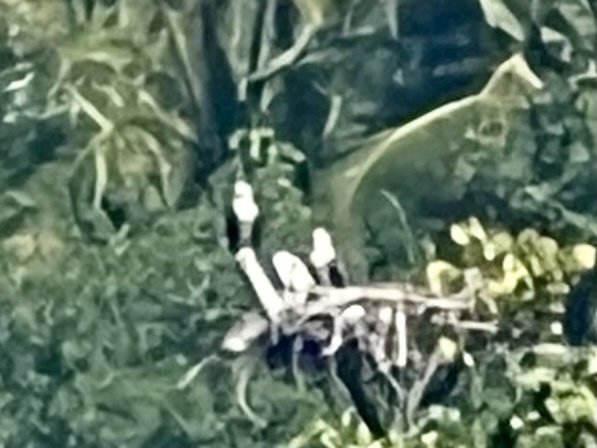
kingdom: Animalia
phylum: Chordata
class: Aves
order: Accipitriformes
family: Pandionidae
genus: Pandion
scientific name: Pandion haliaetus
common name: Osprey
